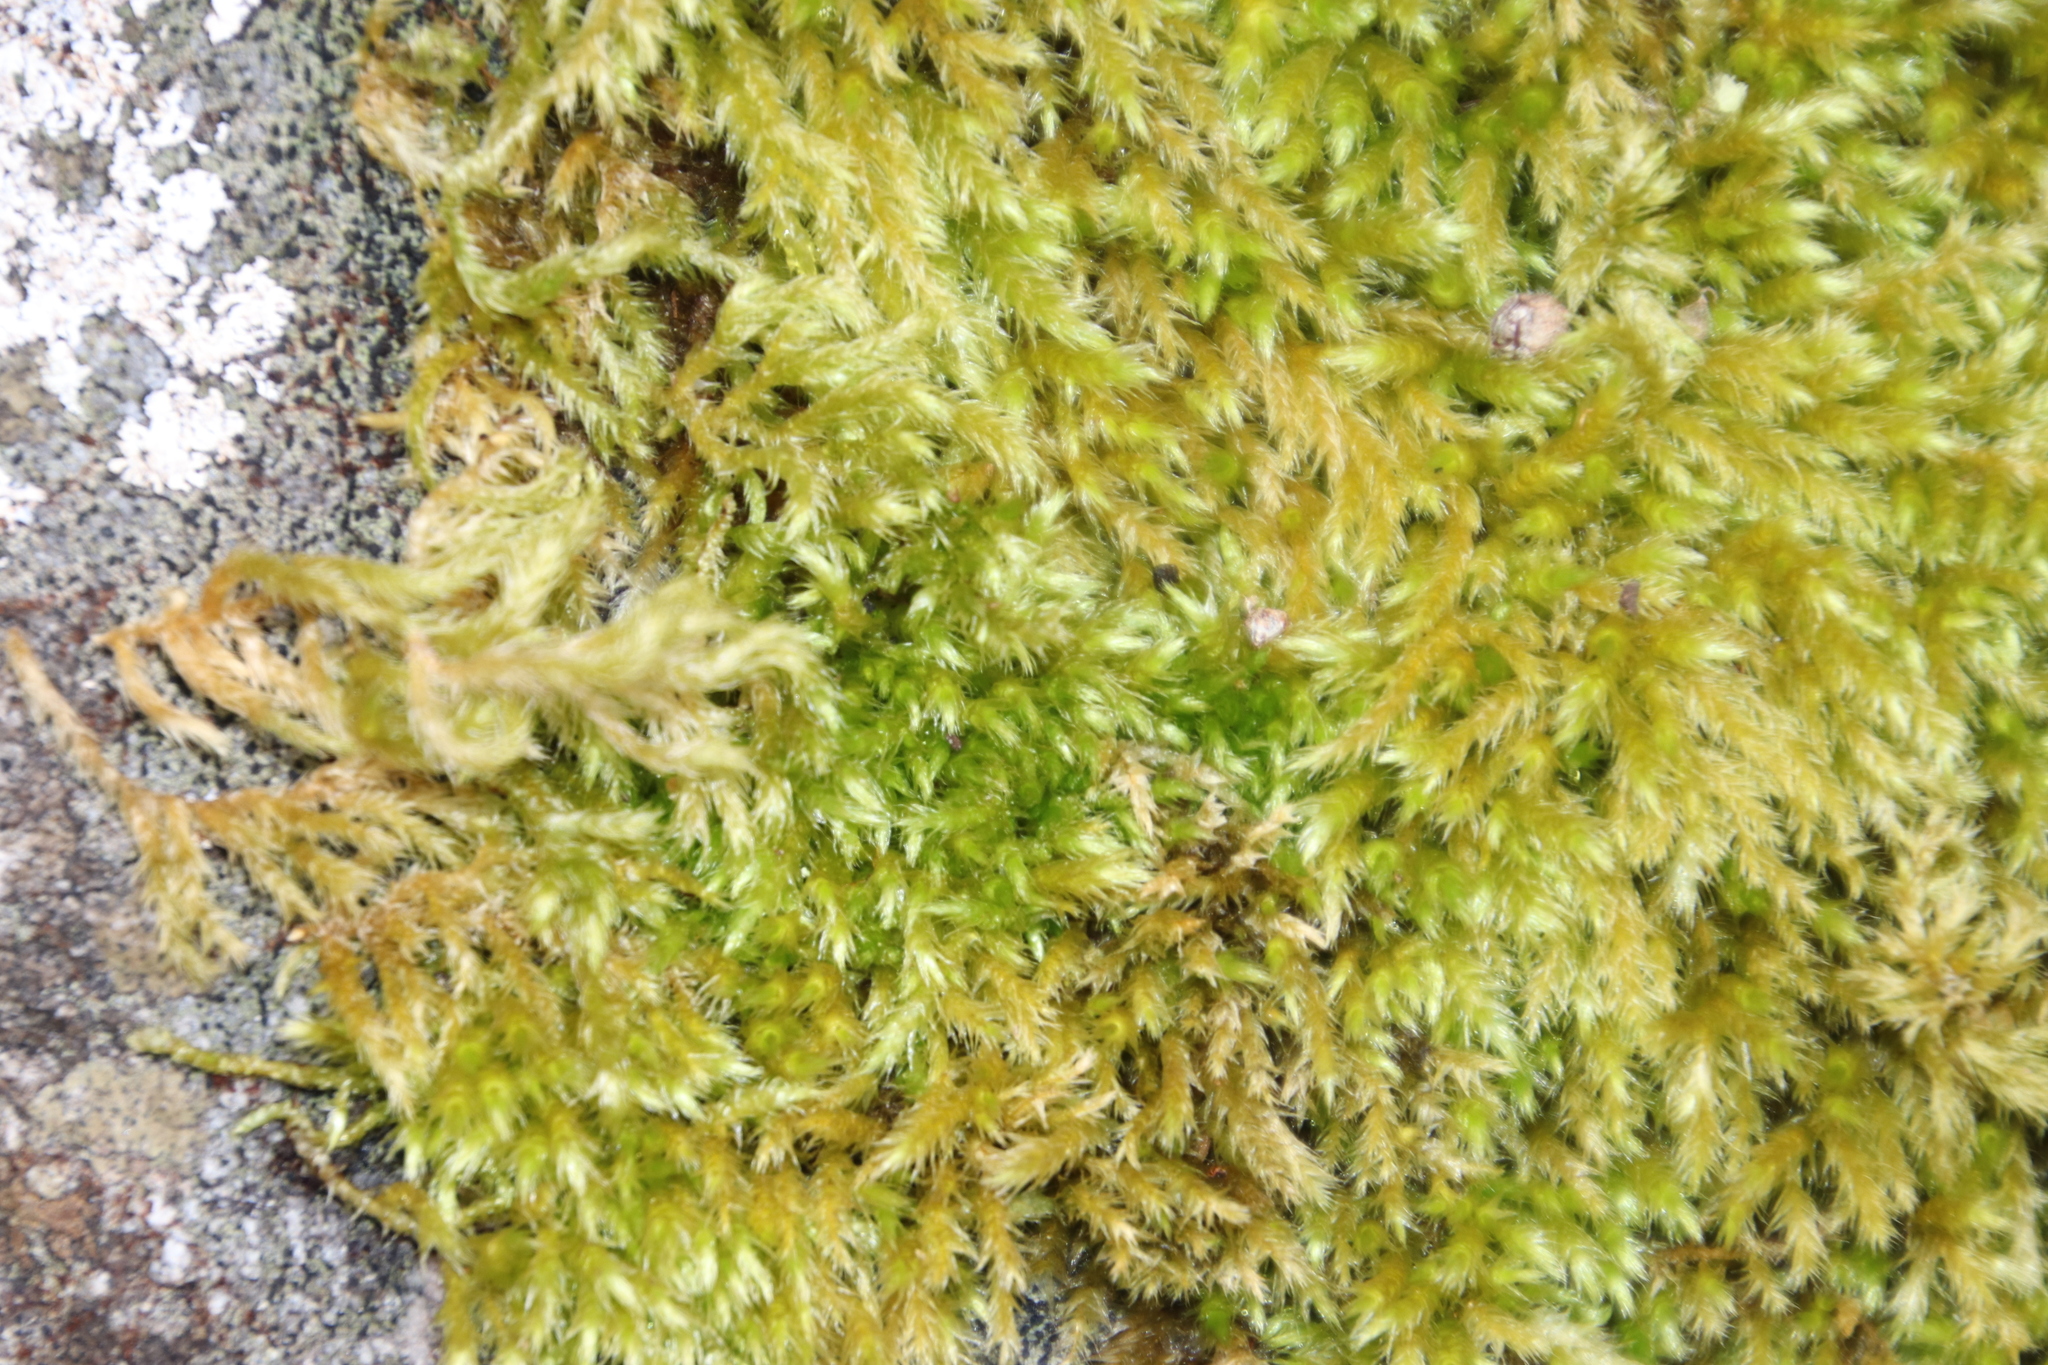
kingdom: Plantae
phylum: Bryophyta
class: Bryopsida
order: Hypnales
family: Brachytheciaceae
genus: Brachythecium
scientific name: Brachythecium ruderale
